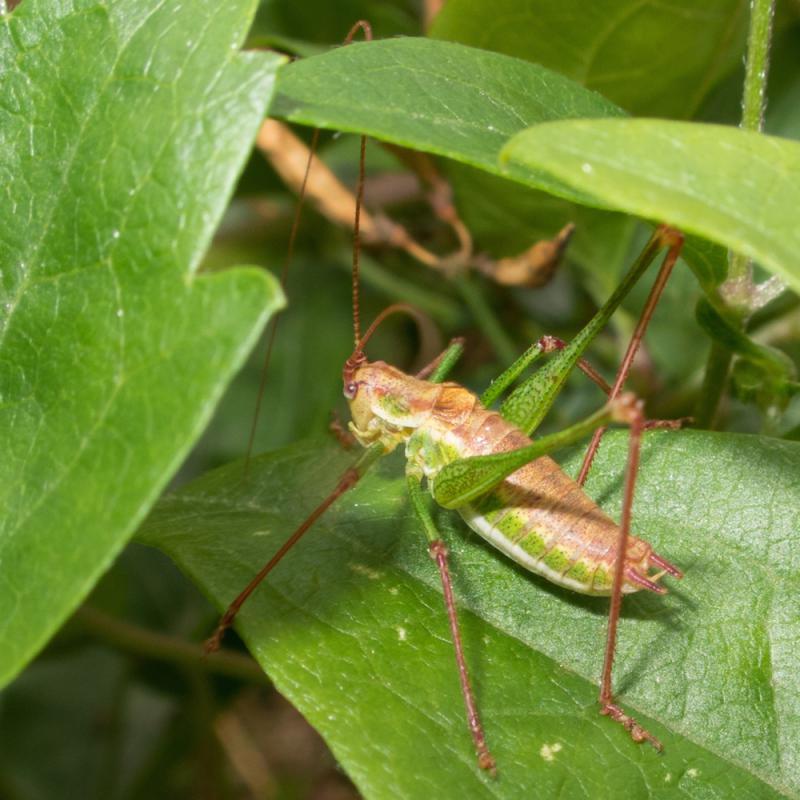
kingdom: Animalia
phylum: Arthropoda
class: Insecta
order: Orthoptera
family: Tettigoniidae
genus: Leptophyes
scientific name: Leptophyes albovittata
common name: Striped bush-cricket
